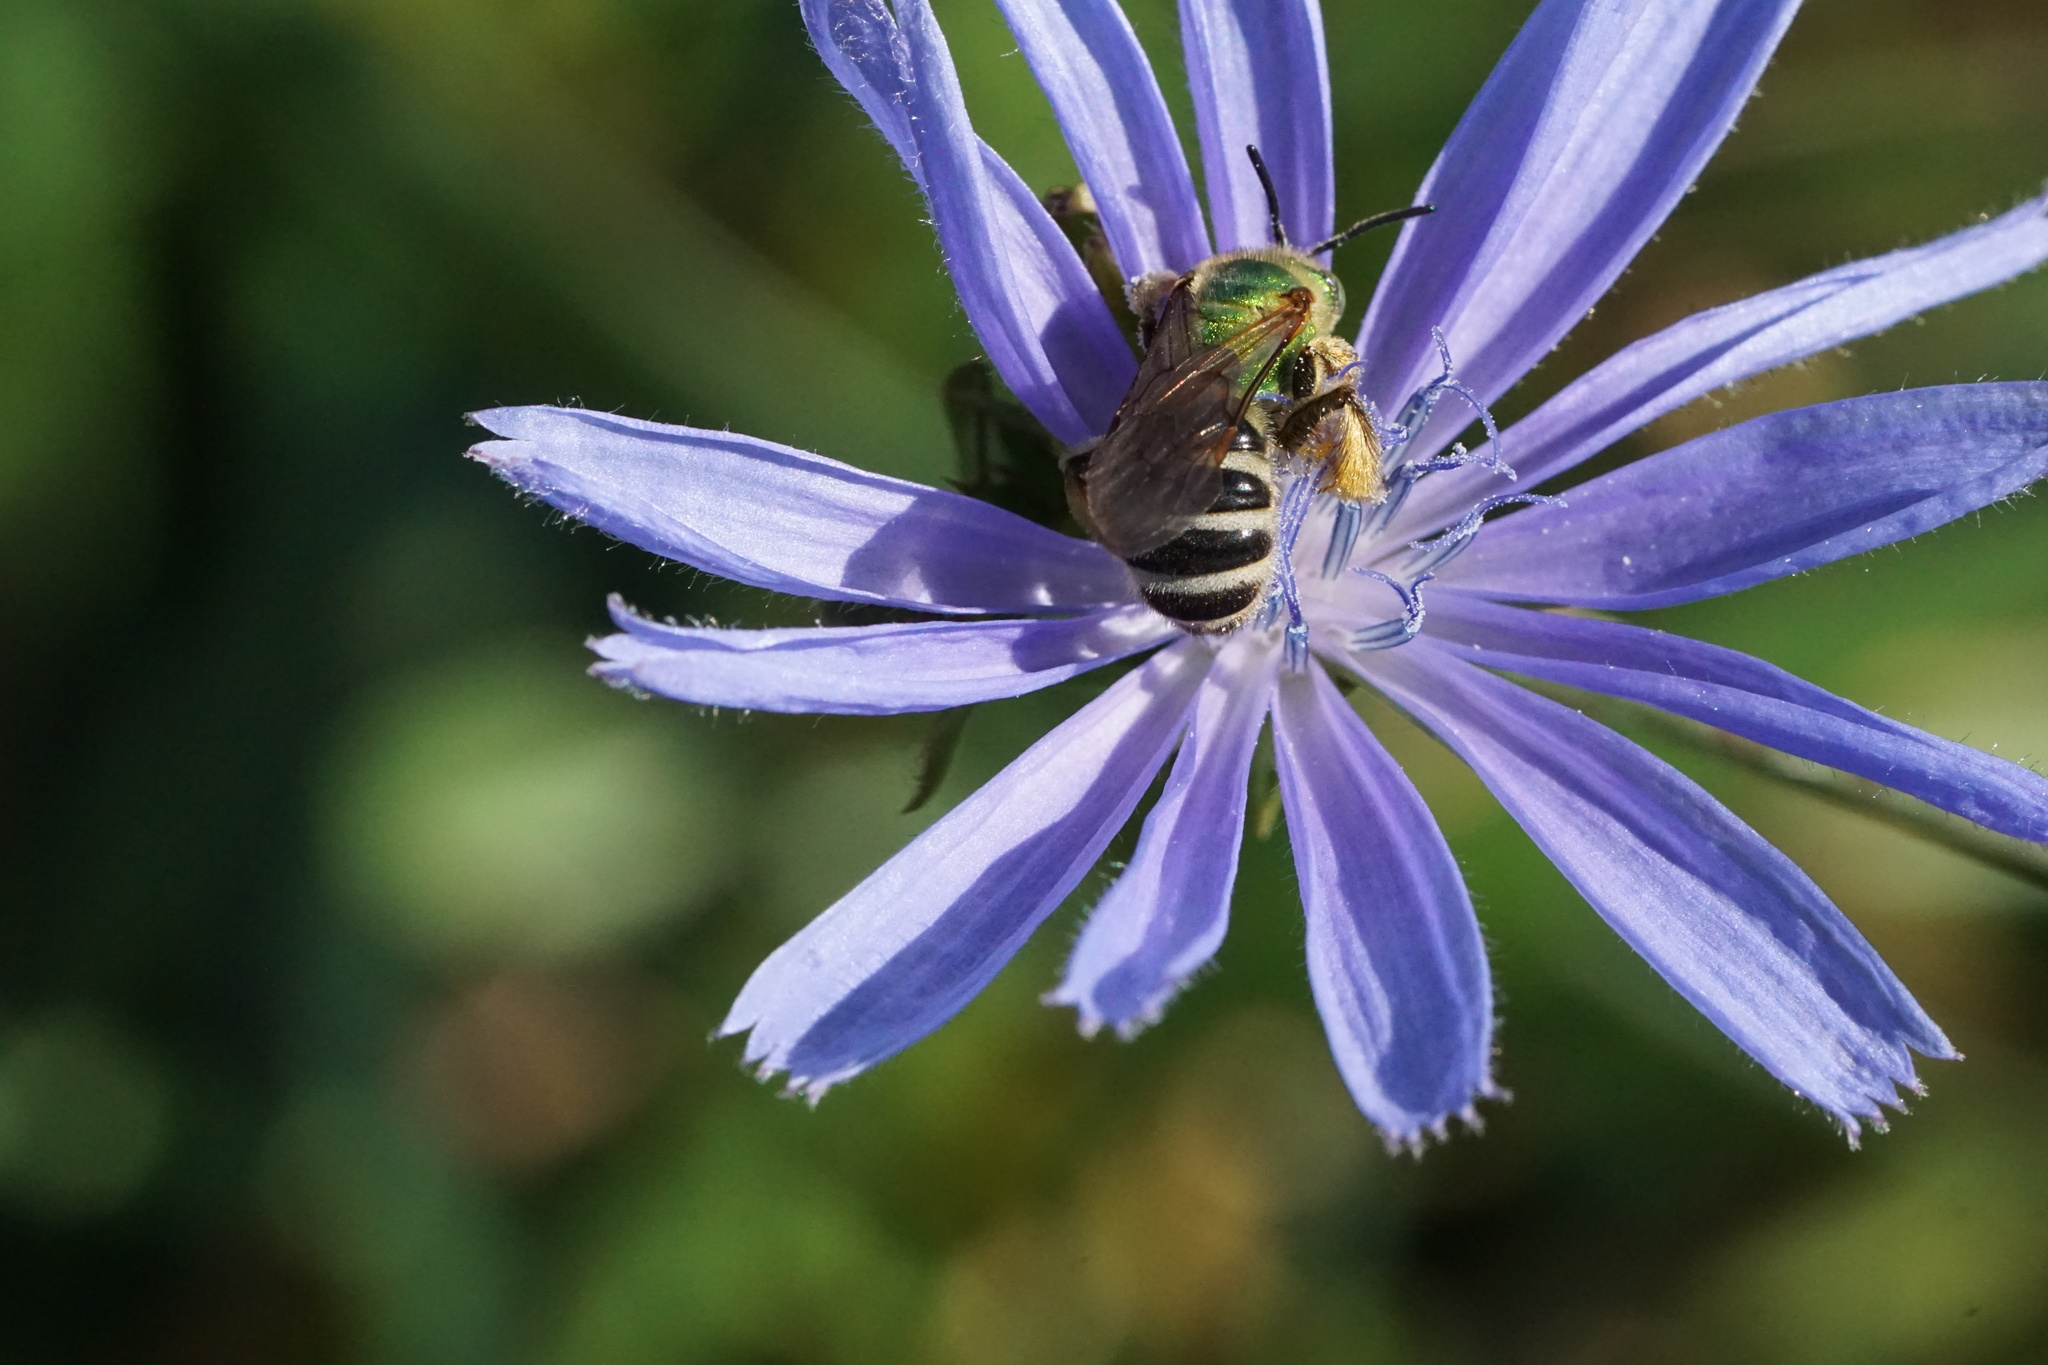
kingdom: Animalia
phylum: Arthropoda
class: Insecta
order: Hymenoptera
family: Halictidae
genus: Agapostemon
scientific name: Agapostemon virescens
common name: Bicolored striped sweat bee
